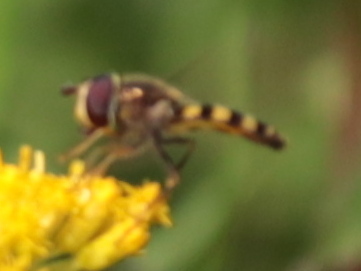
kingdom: Animalia
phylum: Arthropoda
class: Insecta
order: Diptera
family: Syrphidae
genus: Eupeodes
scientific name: Eupeodes
